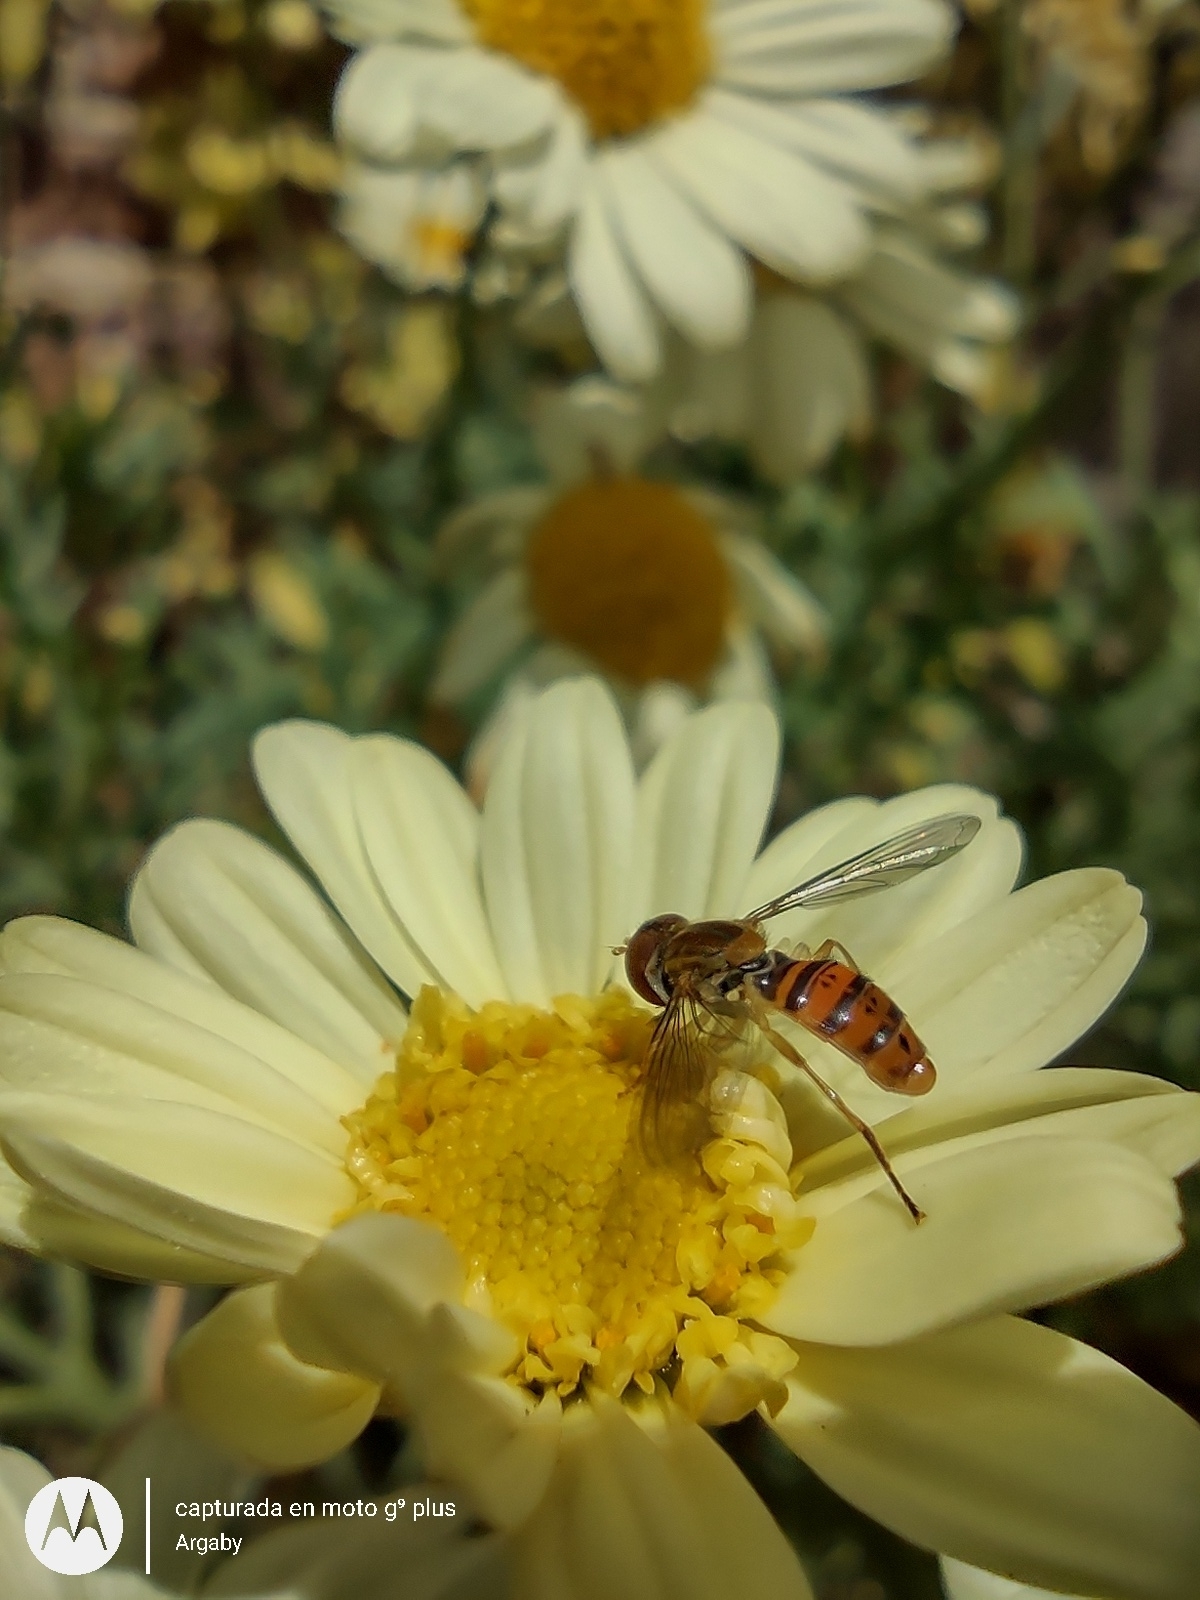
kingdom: Animalia
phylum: Arthropoda
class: Insecta
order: Diptera
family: Syrphidae
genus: Toxomerus
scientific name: Toxomerus
